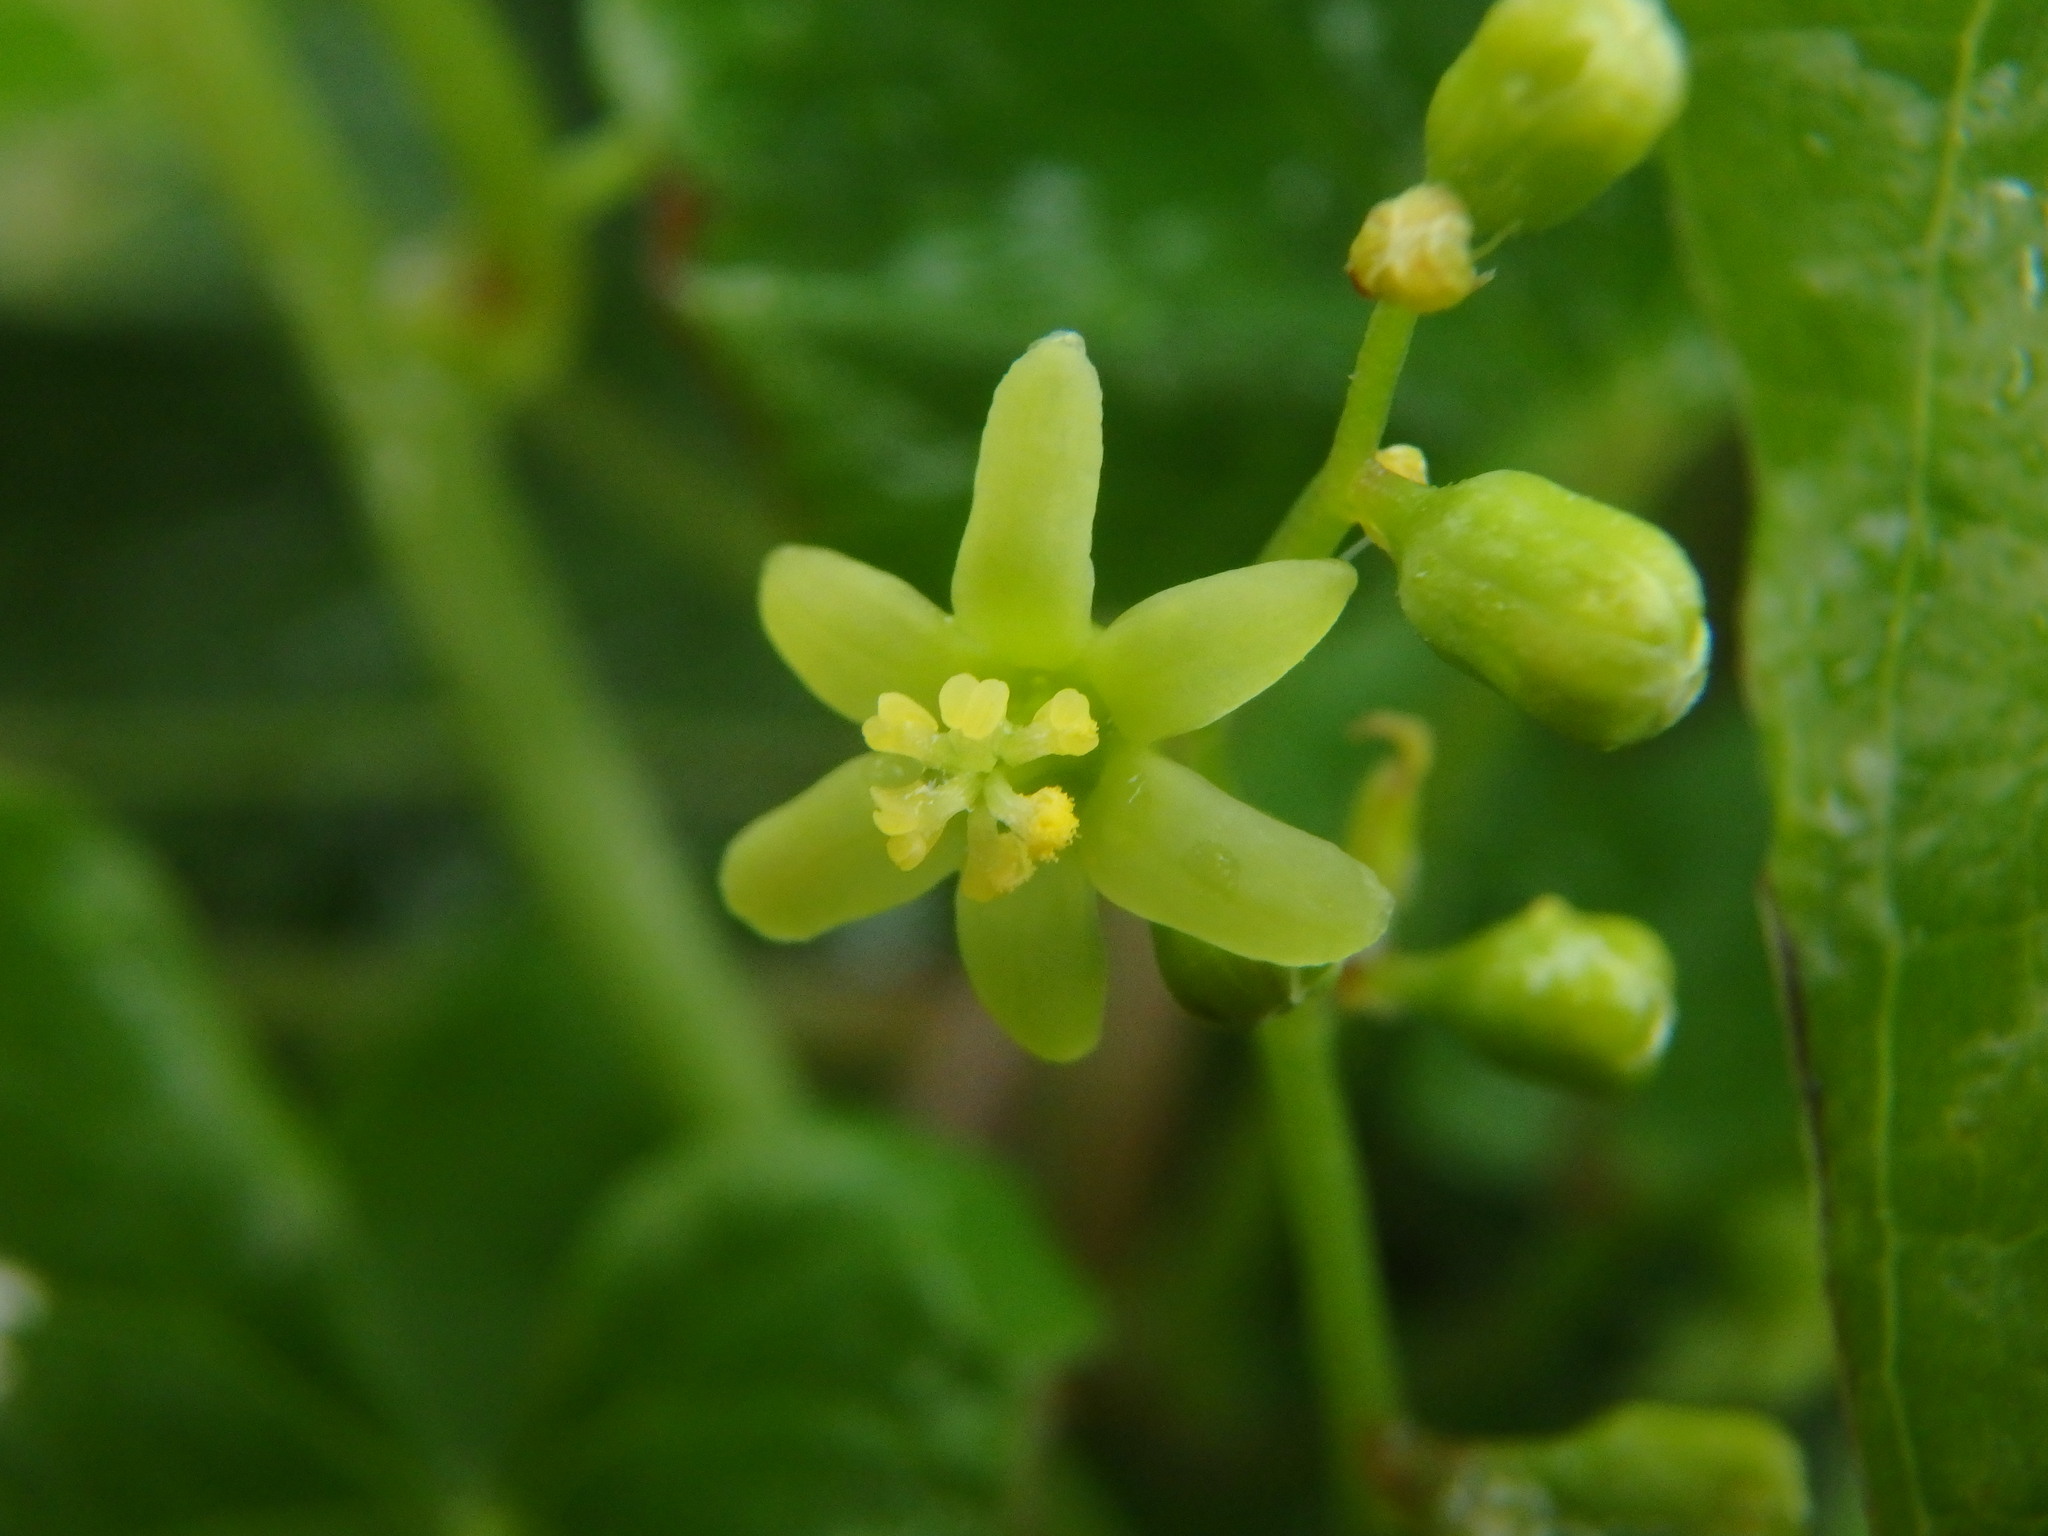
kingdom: Plantae
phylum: Tracheophyta
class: Liliopsida
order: Dioscoreales
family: Dioscoreaceae
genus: Dioscorea
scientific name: Dioscorea communis
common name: Black-bindweed
